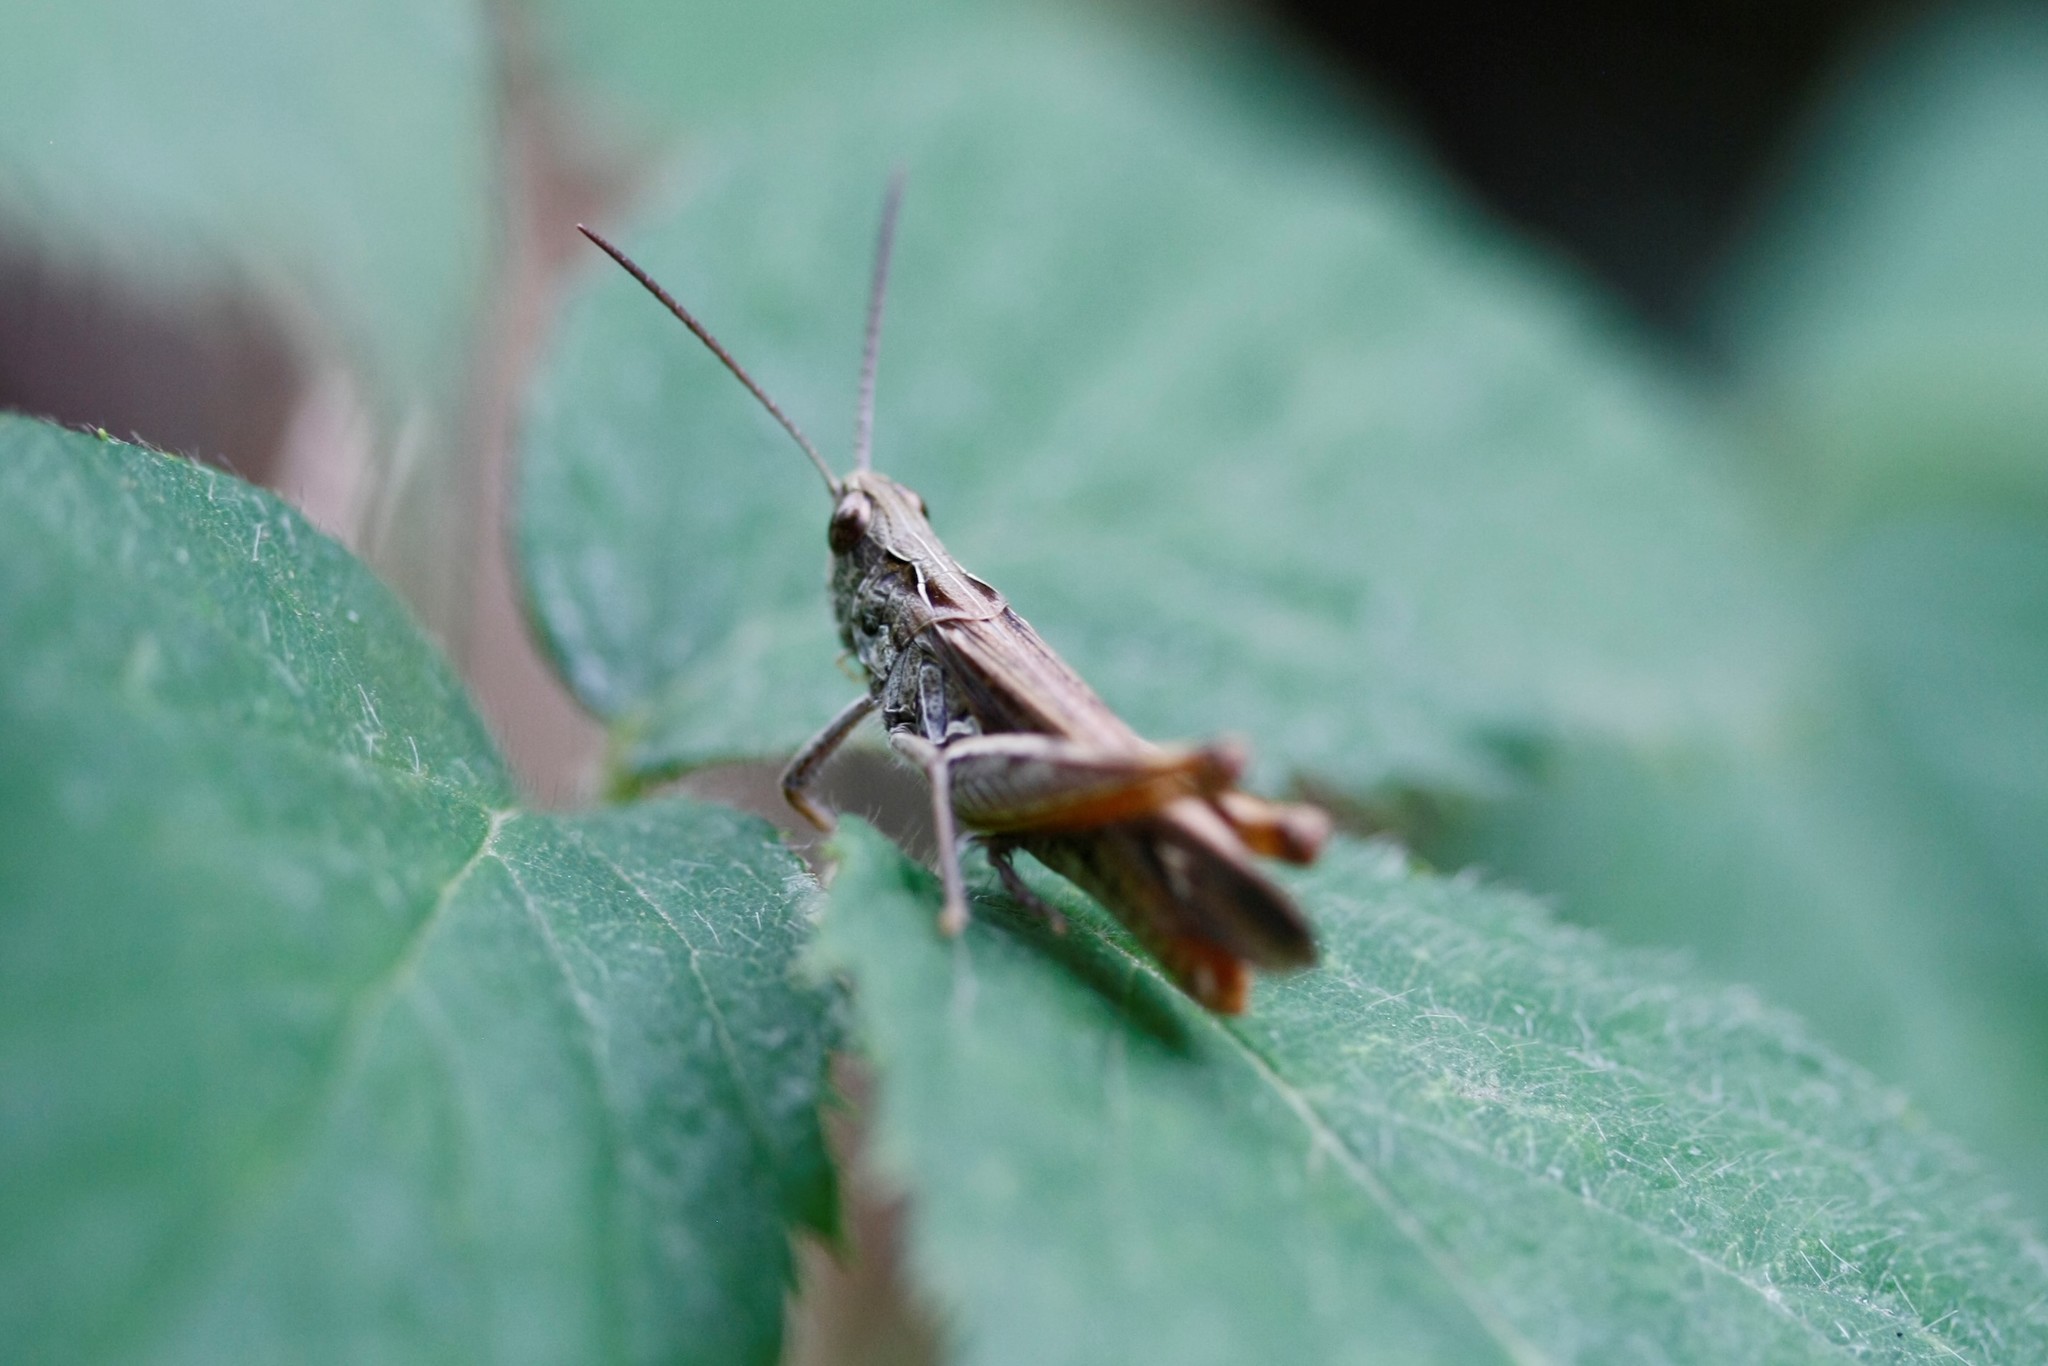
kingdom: Animalia
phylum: Arthropoda
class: Insecta
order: Orthoptera
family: Acrididae
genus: Chorthippus
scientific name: Chorthippus biguttulus
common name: Bow-winged grasshopper
